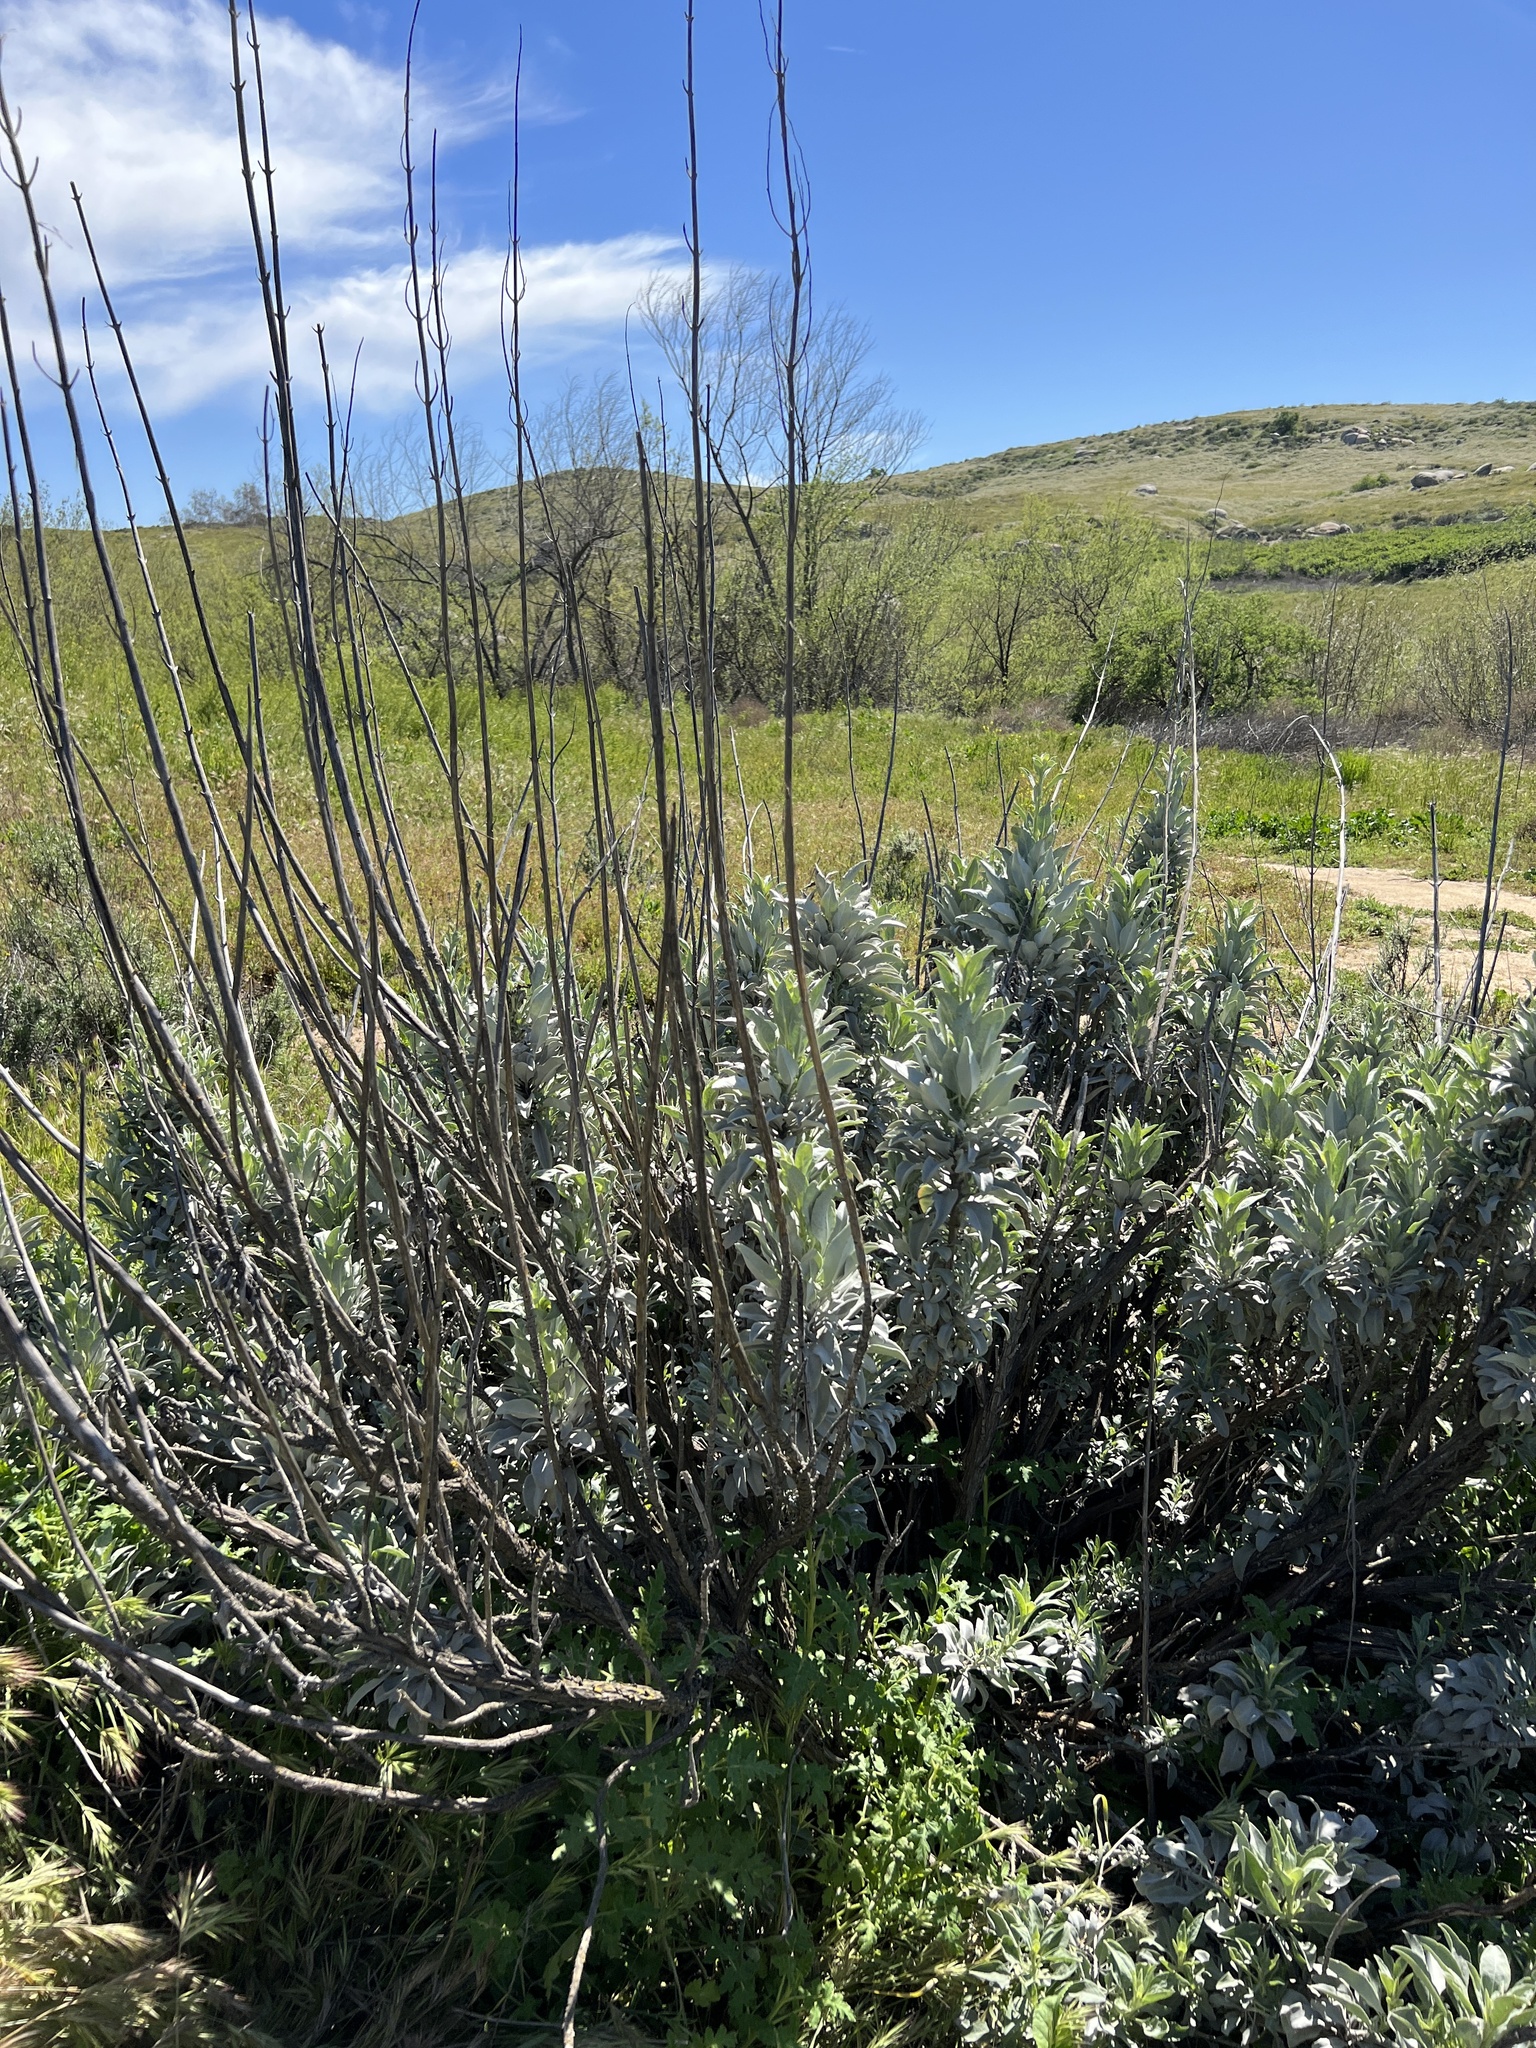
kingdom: Plantae
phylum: Tracheophyta
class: Magnoliopsida
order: Lamiales
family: Lamiaceae
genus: Salvia
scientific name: Salvia apiana
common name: White sage
